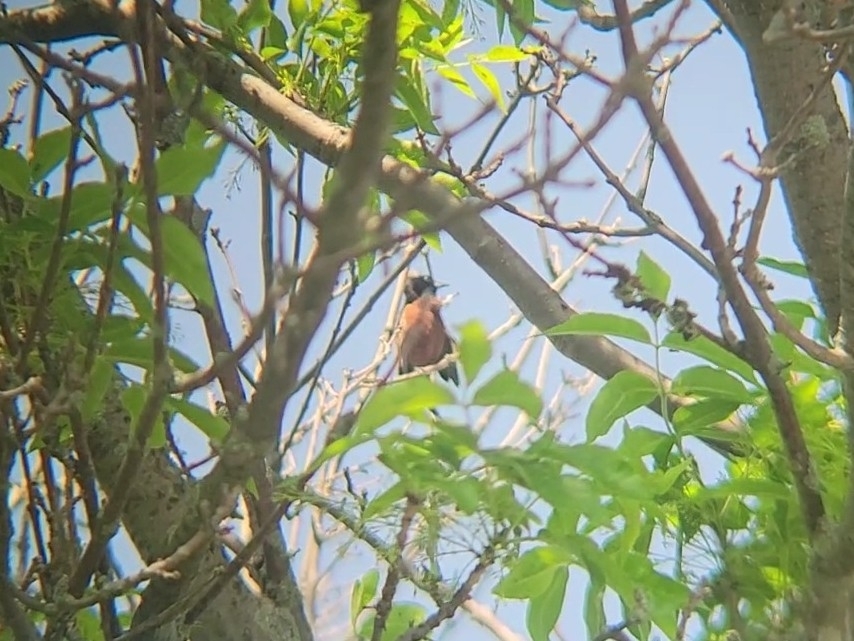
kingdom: Animalia
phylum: Chordata
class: Aves
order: Passeriformes
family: Icteridae
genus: Icterus
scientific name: Icterus spurius
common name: Orchard oriole
